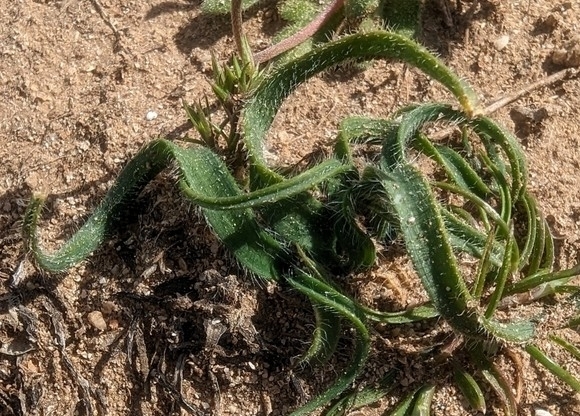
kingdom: Plantae
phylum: Tracheophyta
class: Liliopsida
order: Asparagales
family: Amaryllidaceae
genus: Allium
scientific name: Allium chamaemoly
